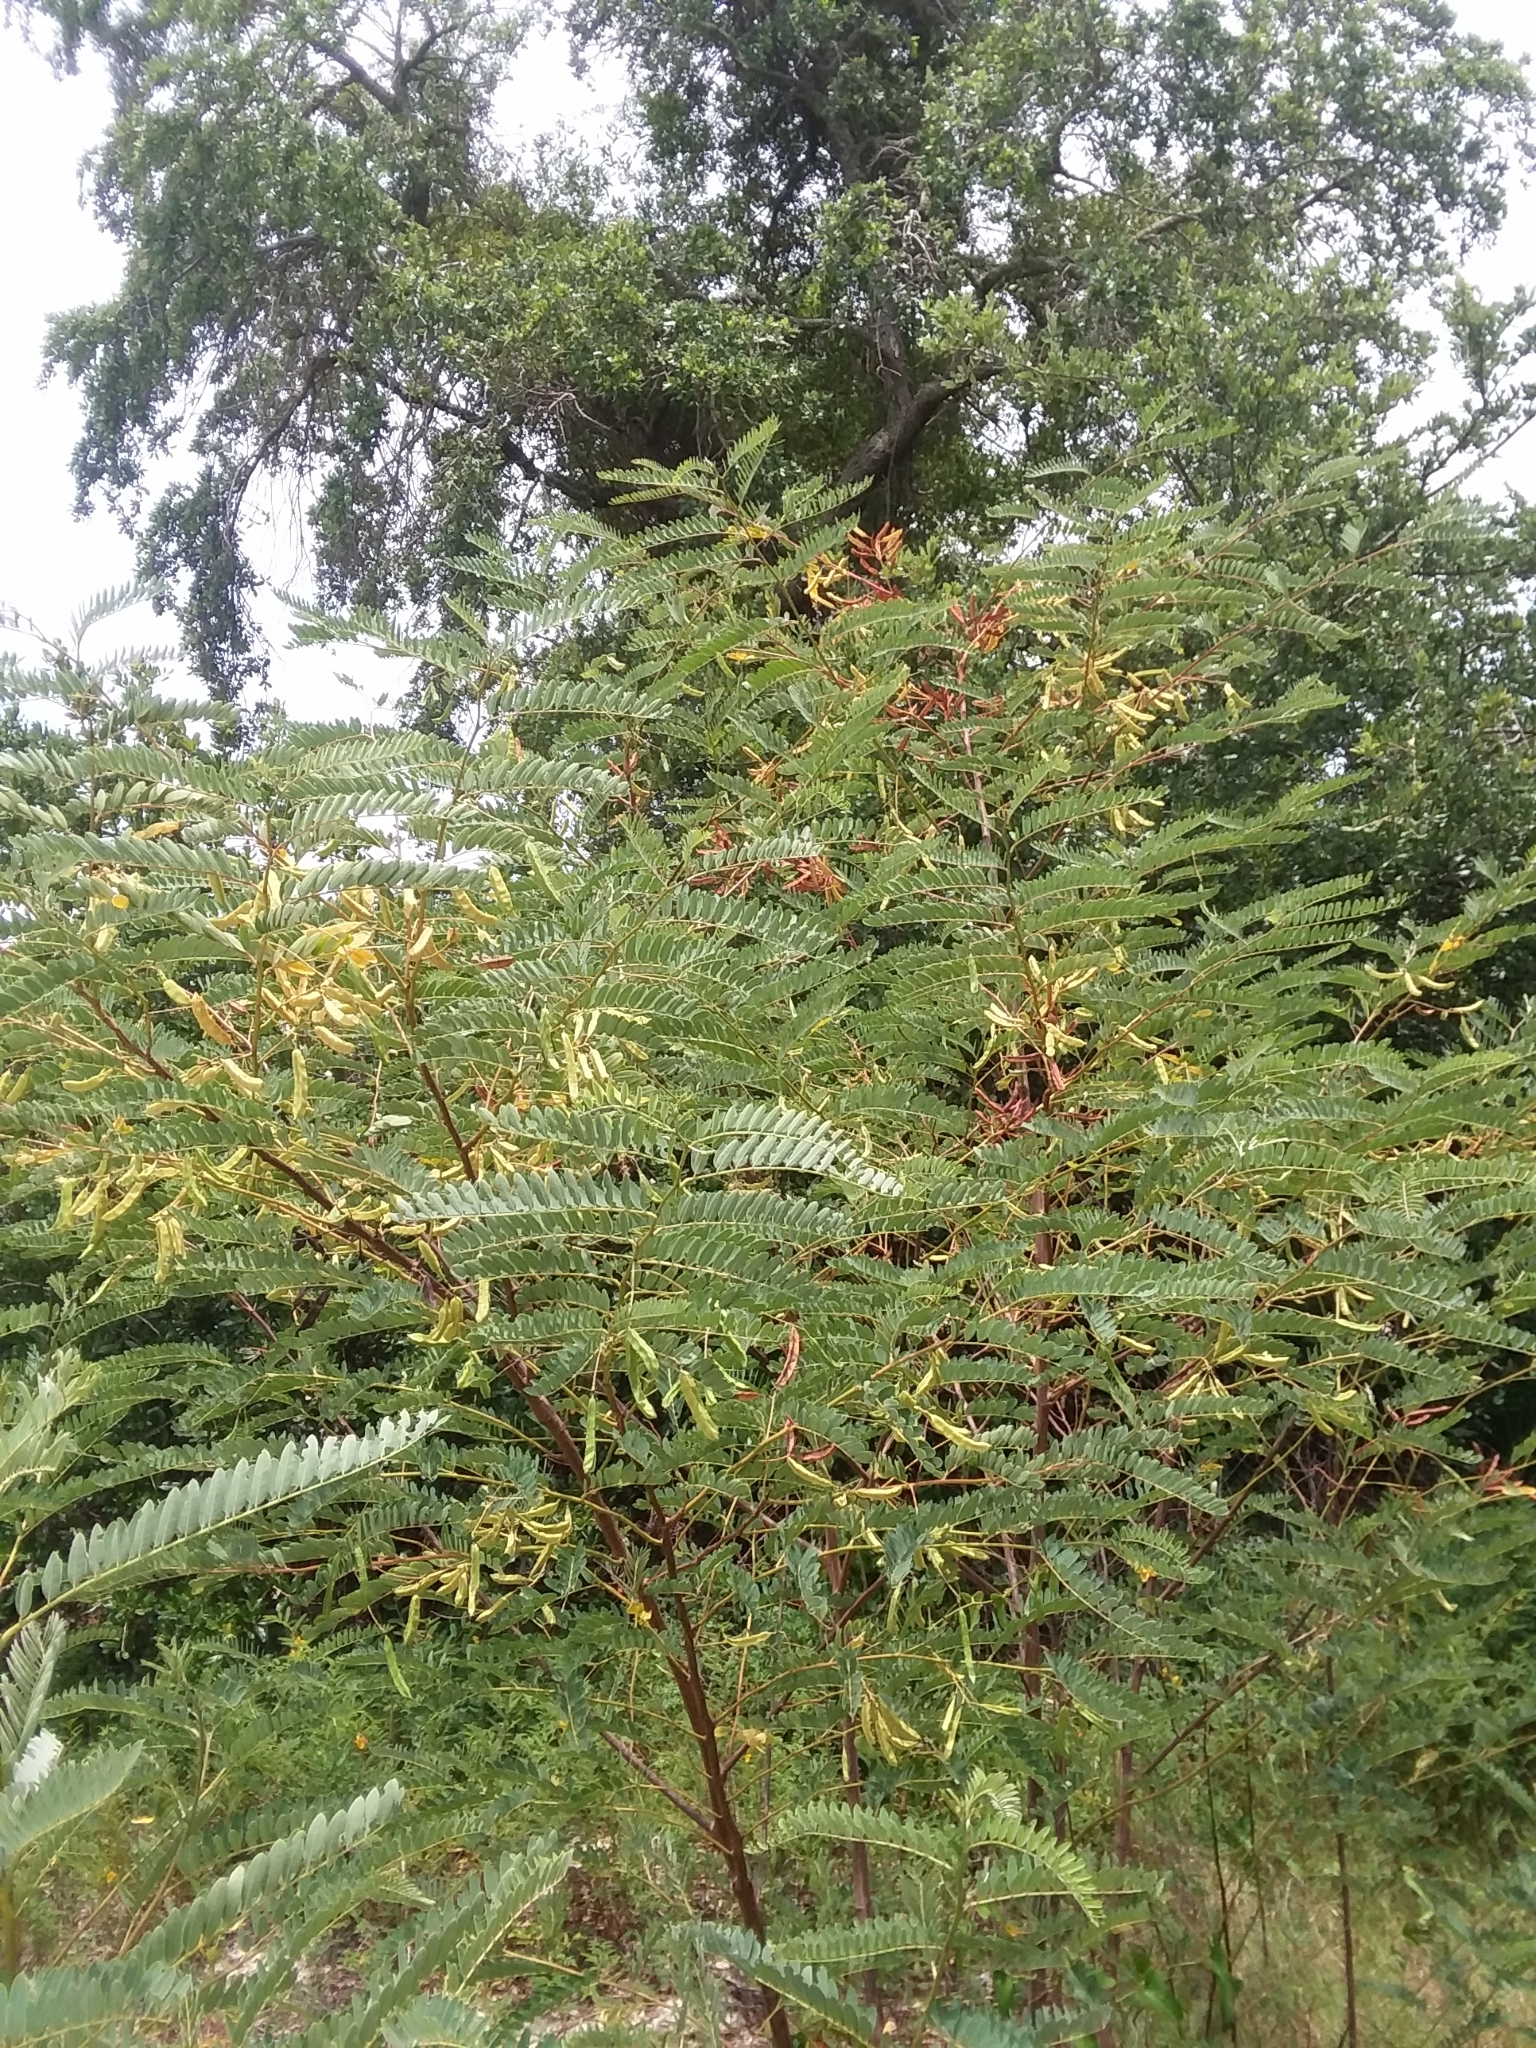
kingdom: Plantae
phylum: Tracheophyta
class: Magnoliopsida
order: Fabales
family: Fabaceae
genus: Sesbania
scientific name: Sesbania virgata
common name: Wand riverhemp
